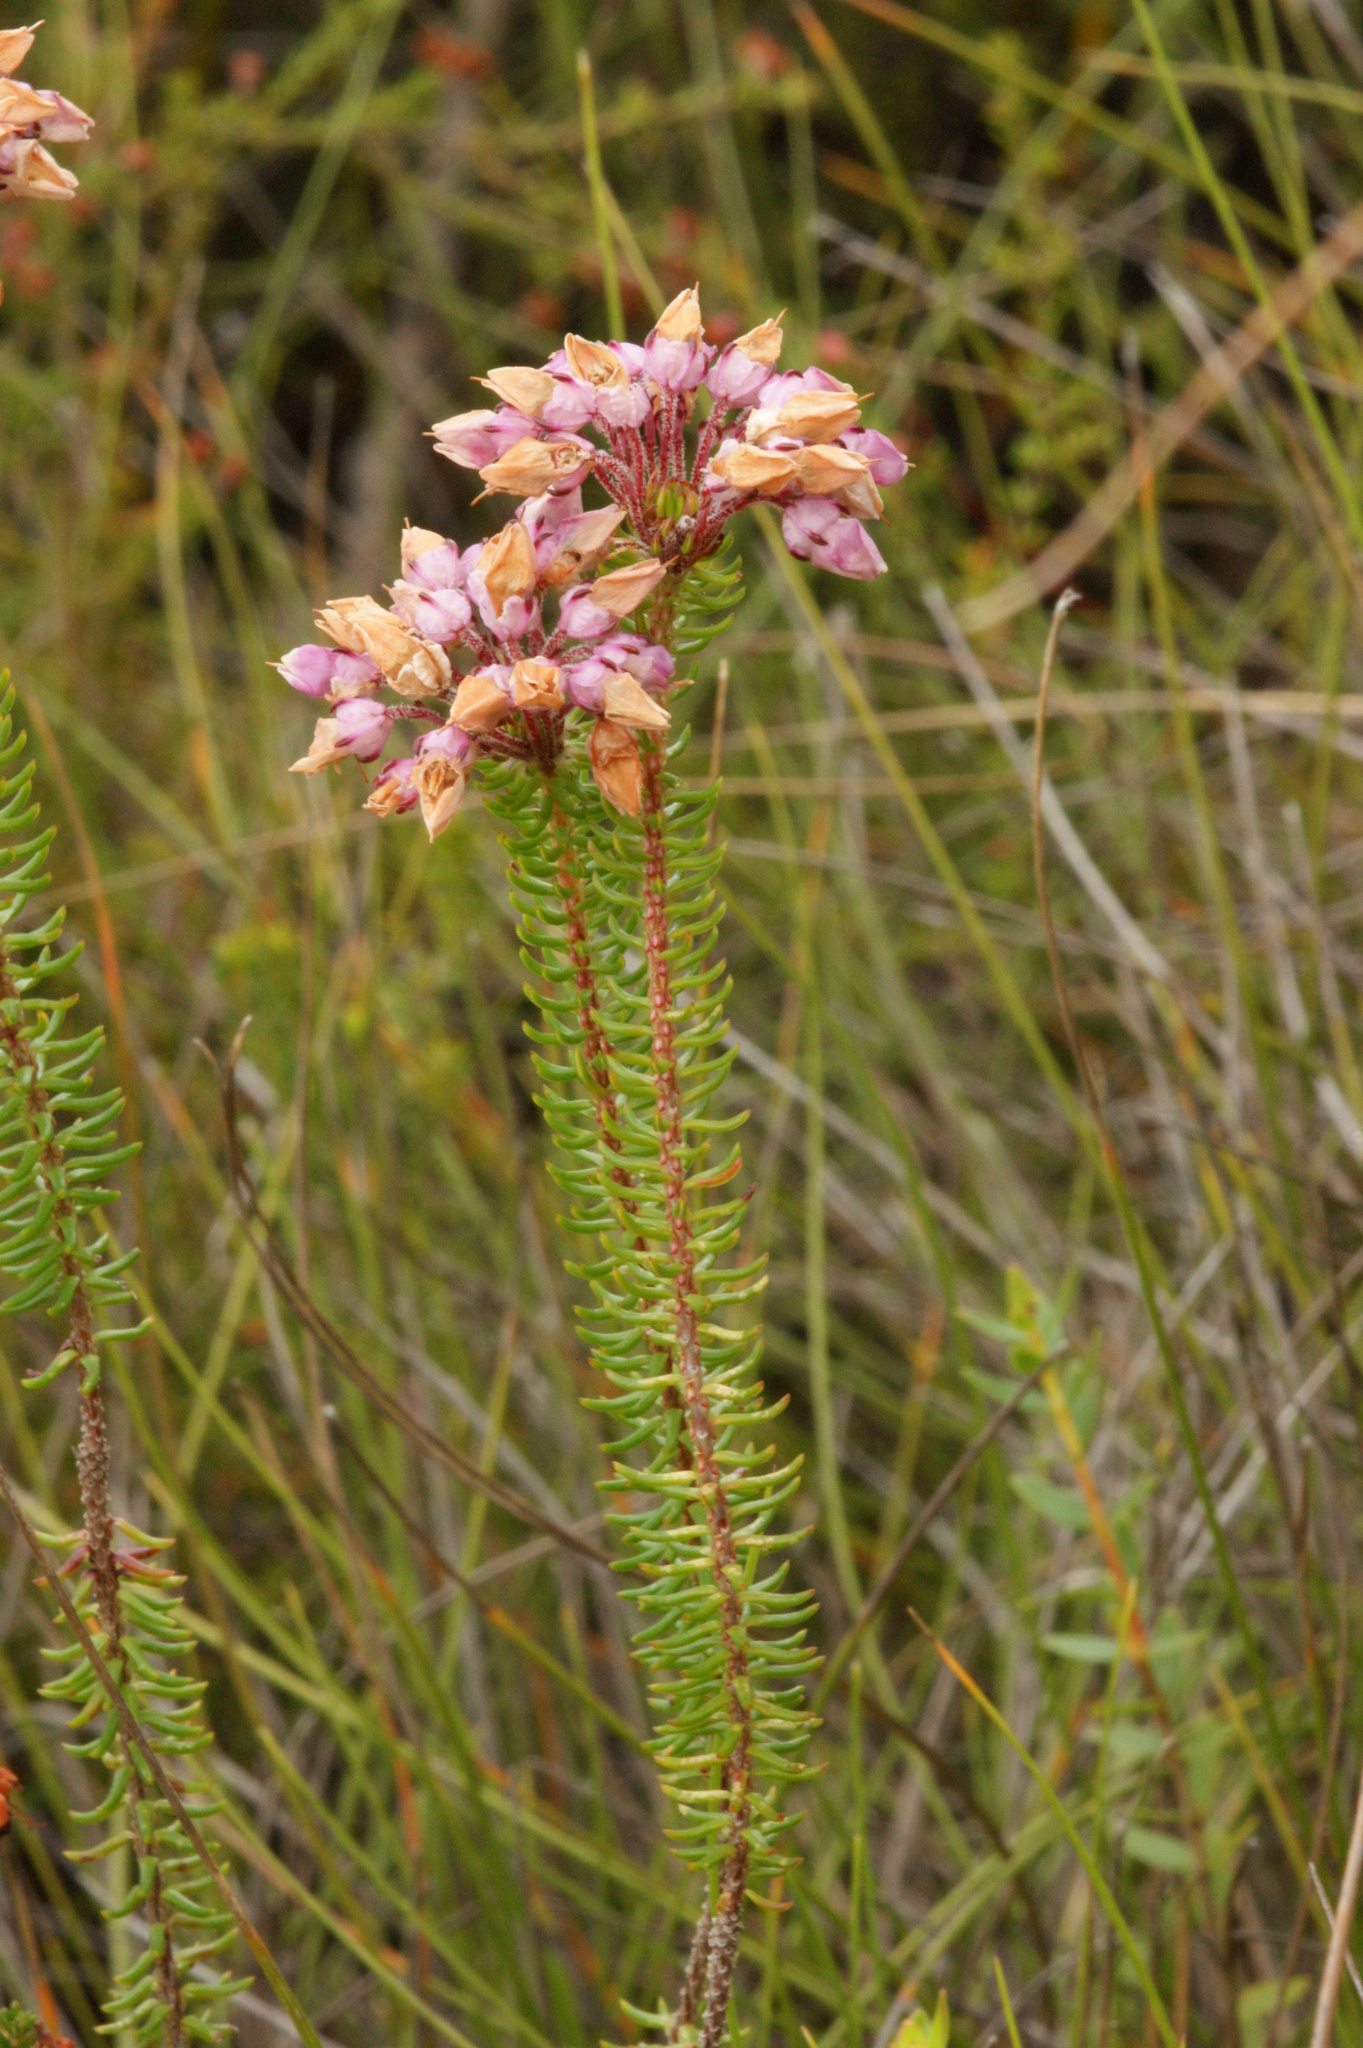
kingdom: Plantae
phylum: Tracheophyta
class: Magnoliopsida
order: Ericales
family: Ericaceae
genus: Erica
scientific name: Erica cubica
